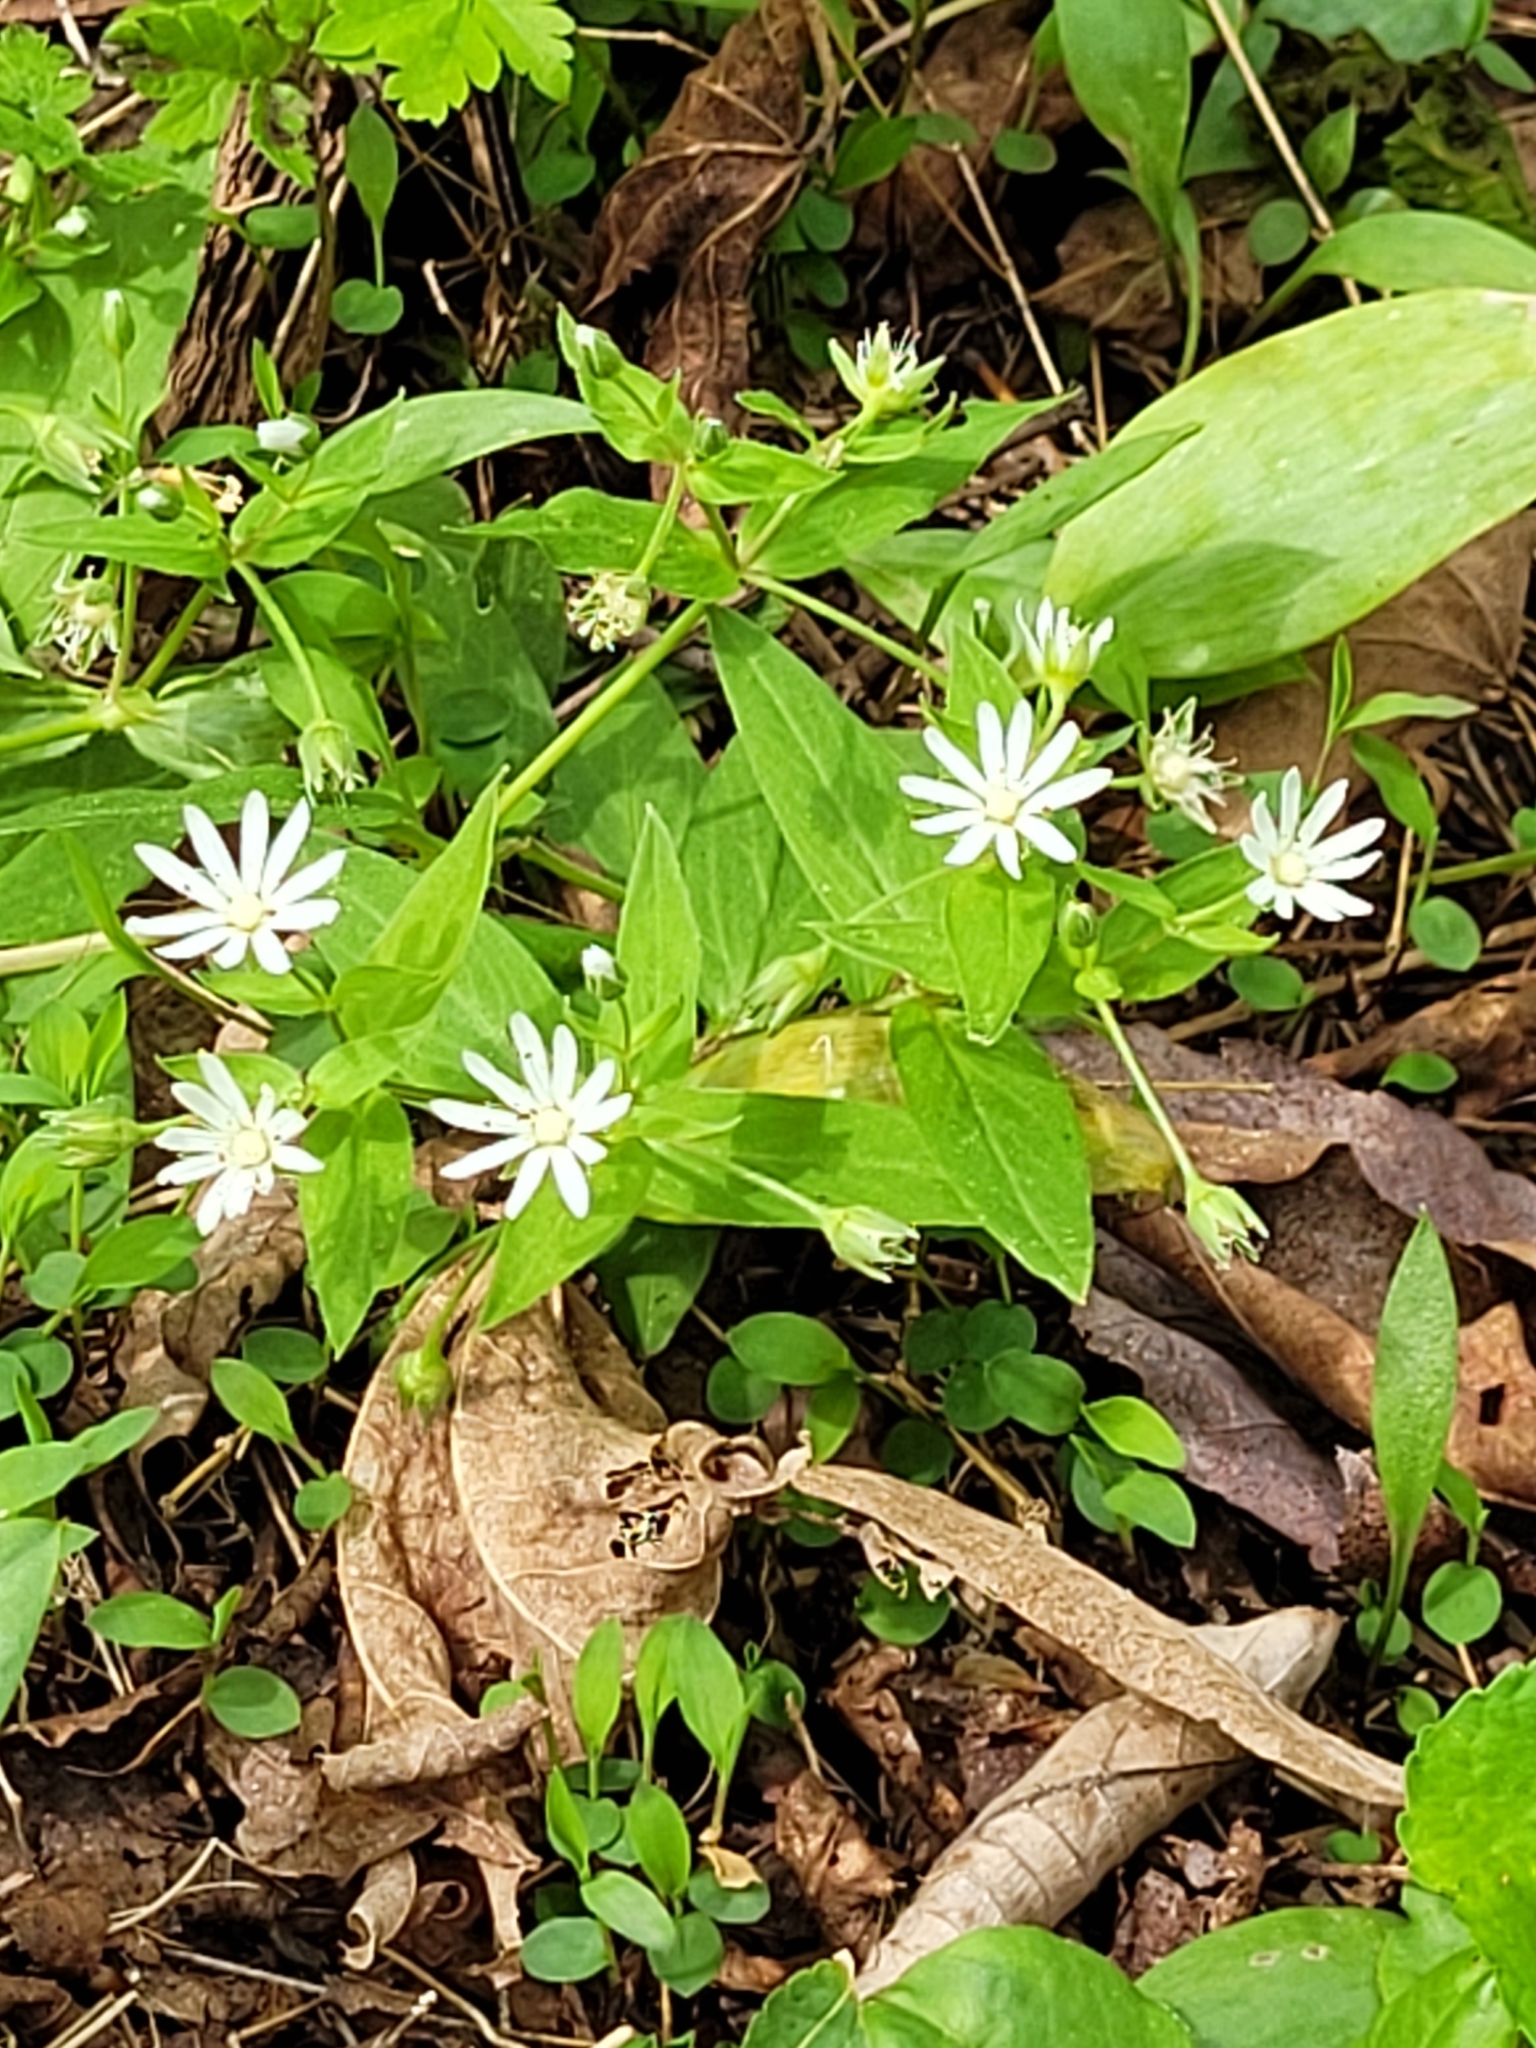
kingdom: Plantae
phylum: Tracheophyta
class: Magnoliopsida
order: Caryophyllales
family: Caryophyllaceae
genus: Stellaria
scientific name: Stellaria pubera
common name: Star chickweed
